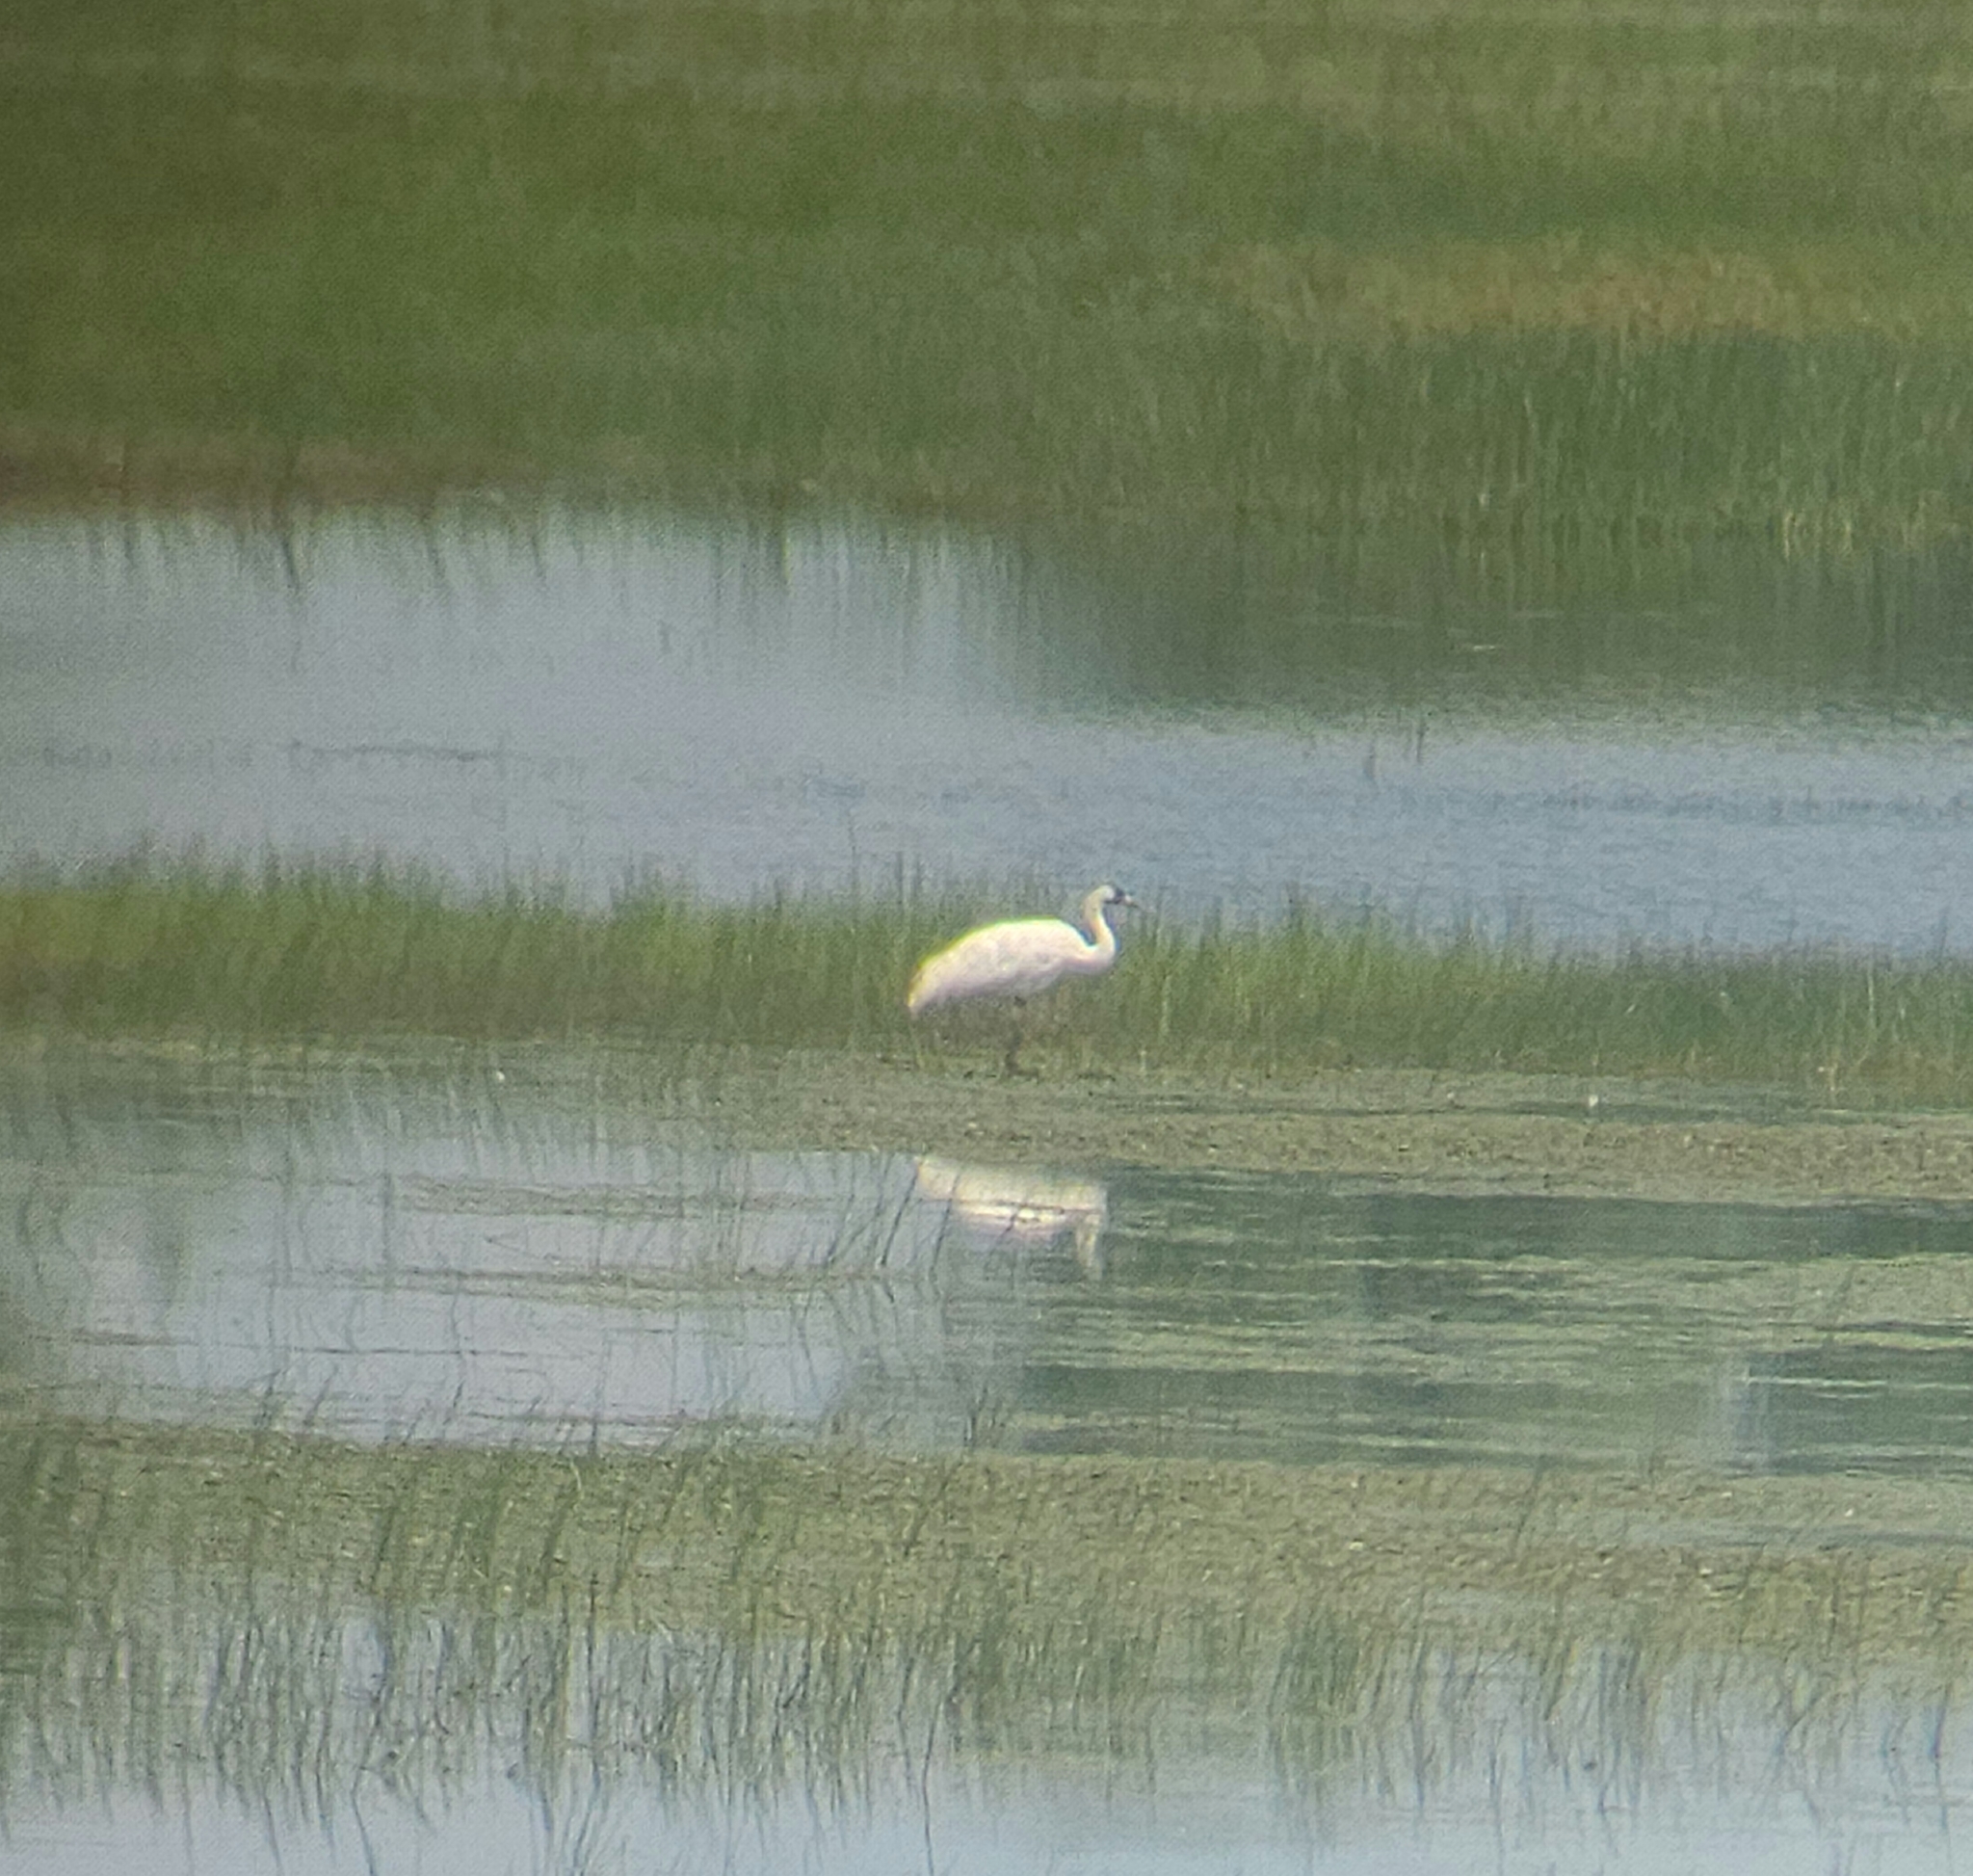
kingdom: Animalia
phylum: Chordata
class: Aves
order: Gruiformes
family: Gruidae
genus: Grus
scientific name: Grus americana
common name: Whooping crane
